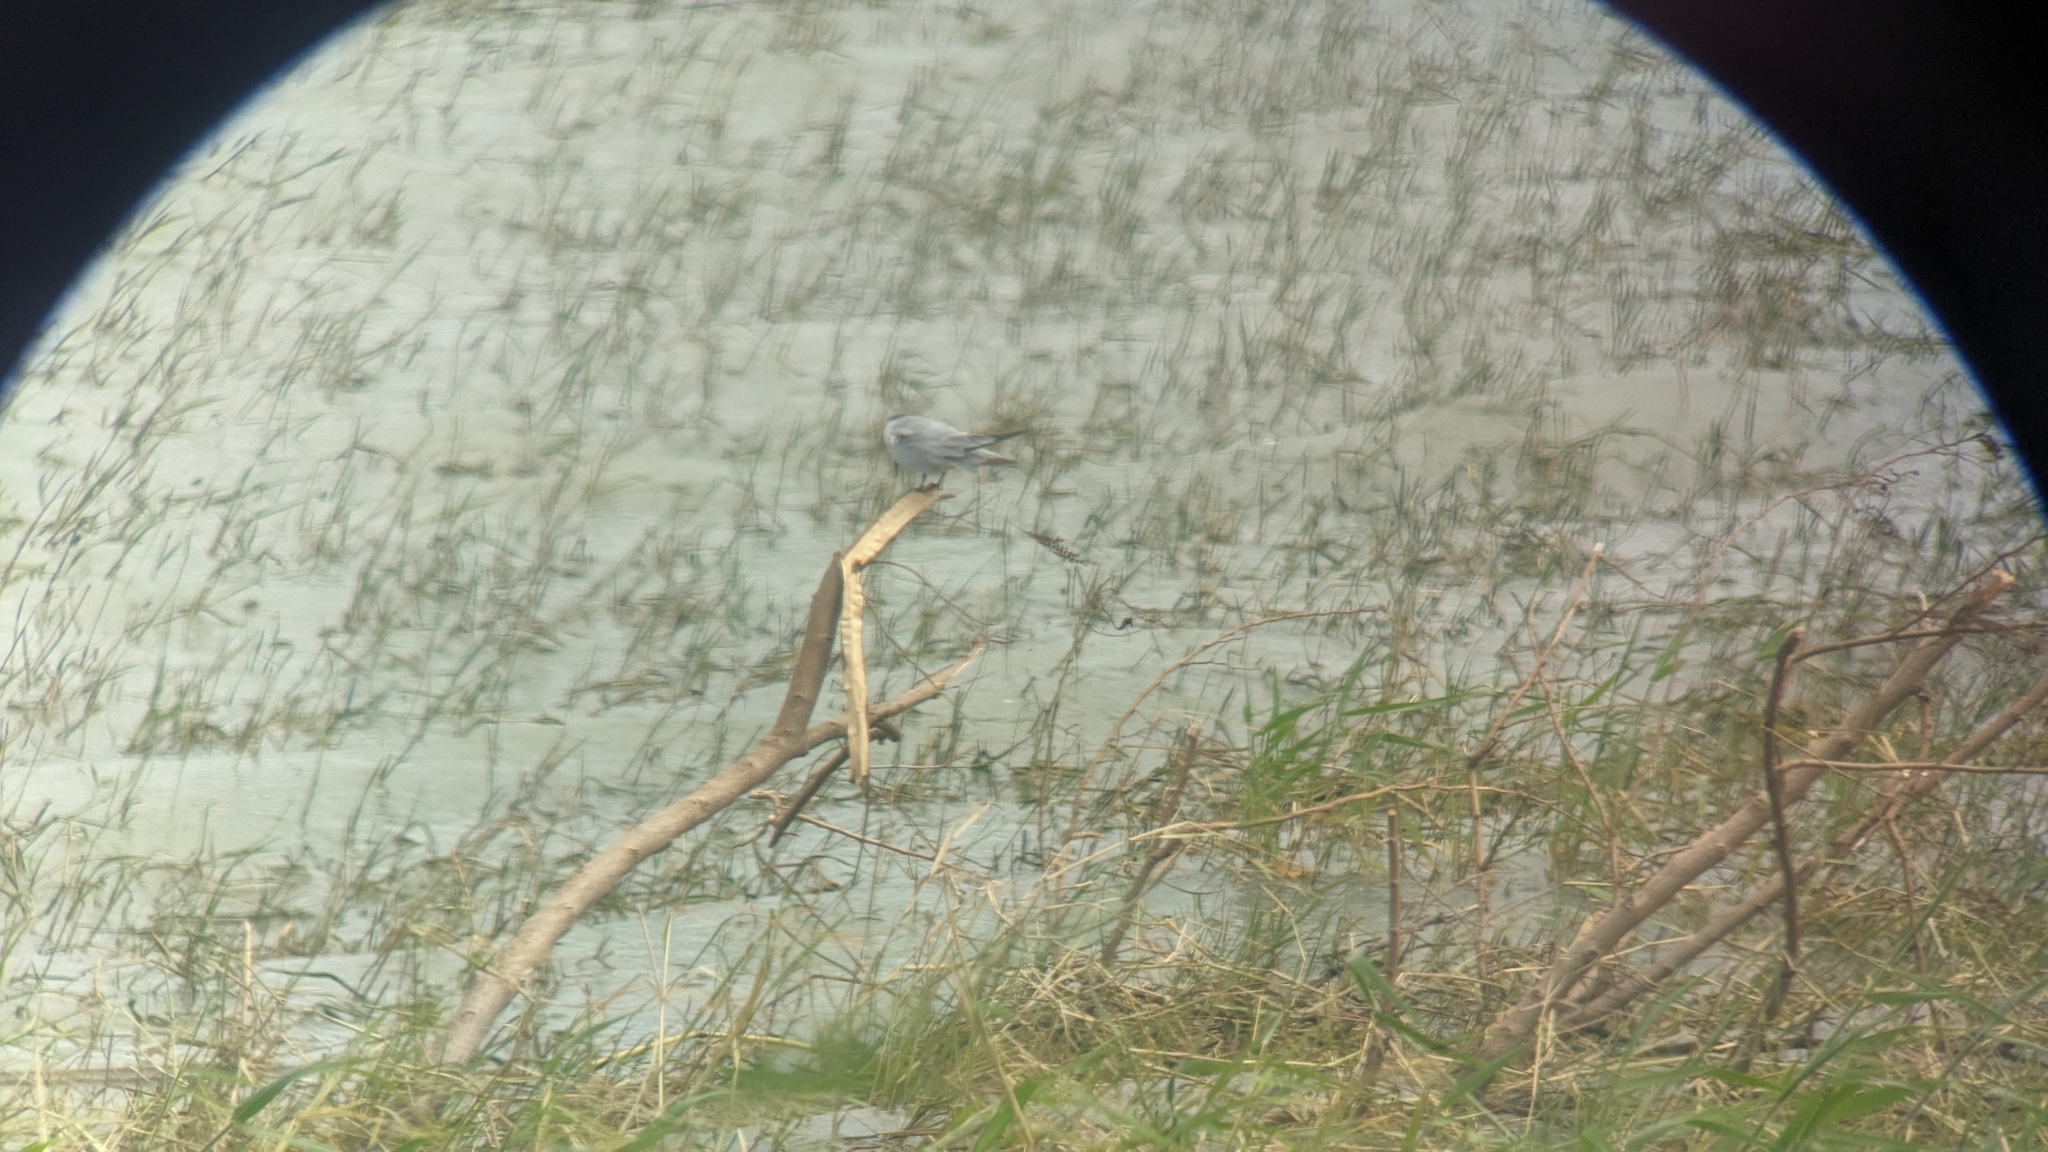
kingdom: Animalia
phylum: Chordata
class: Aves
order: Charadriiformes
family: Laridae
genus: Chlidonias
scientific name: Chlidonias hybrida
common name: Whiskered tern
